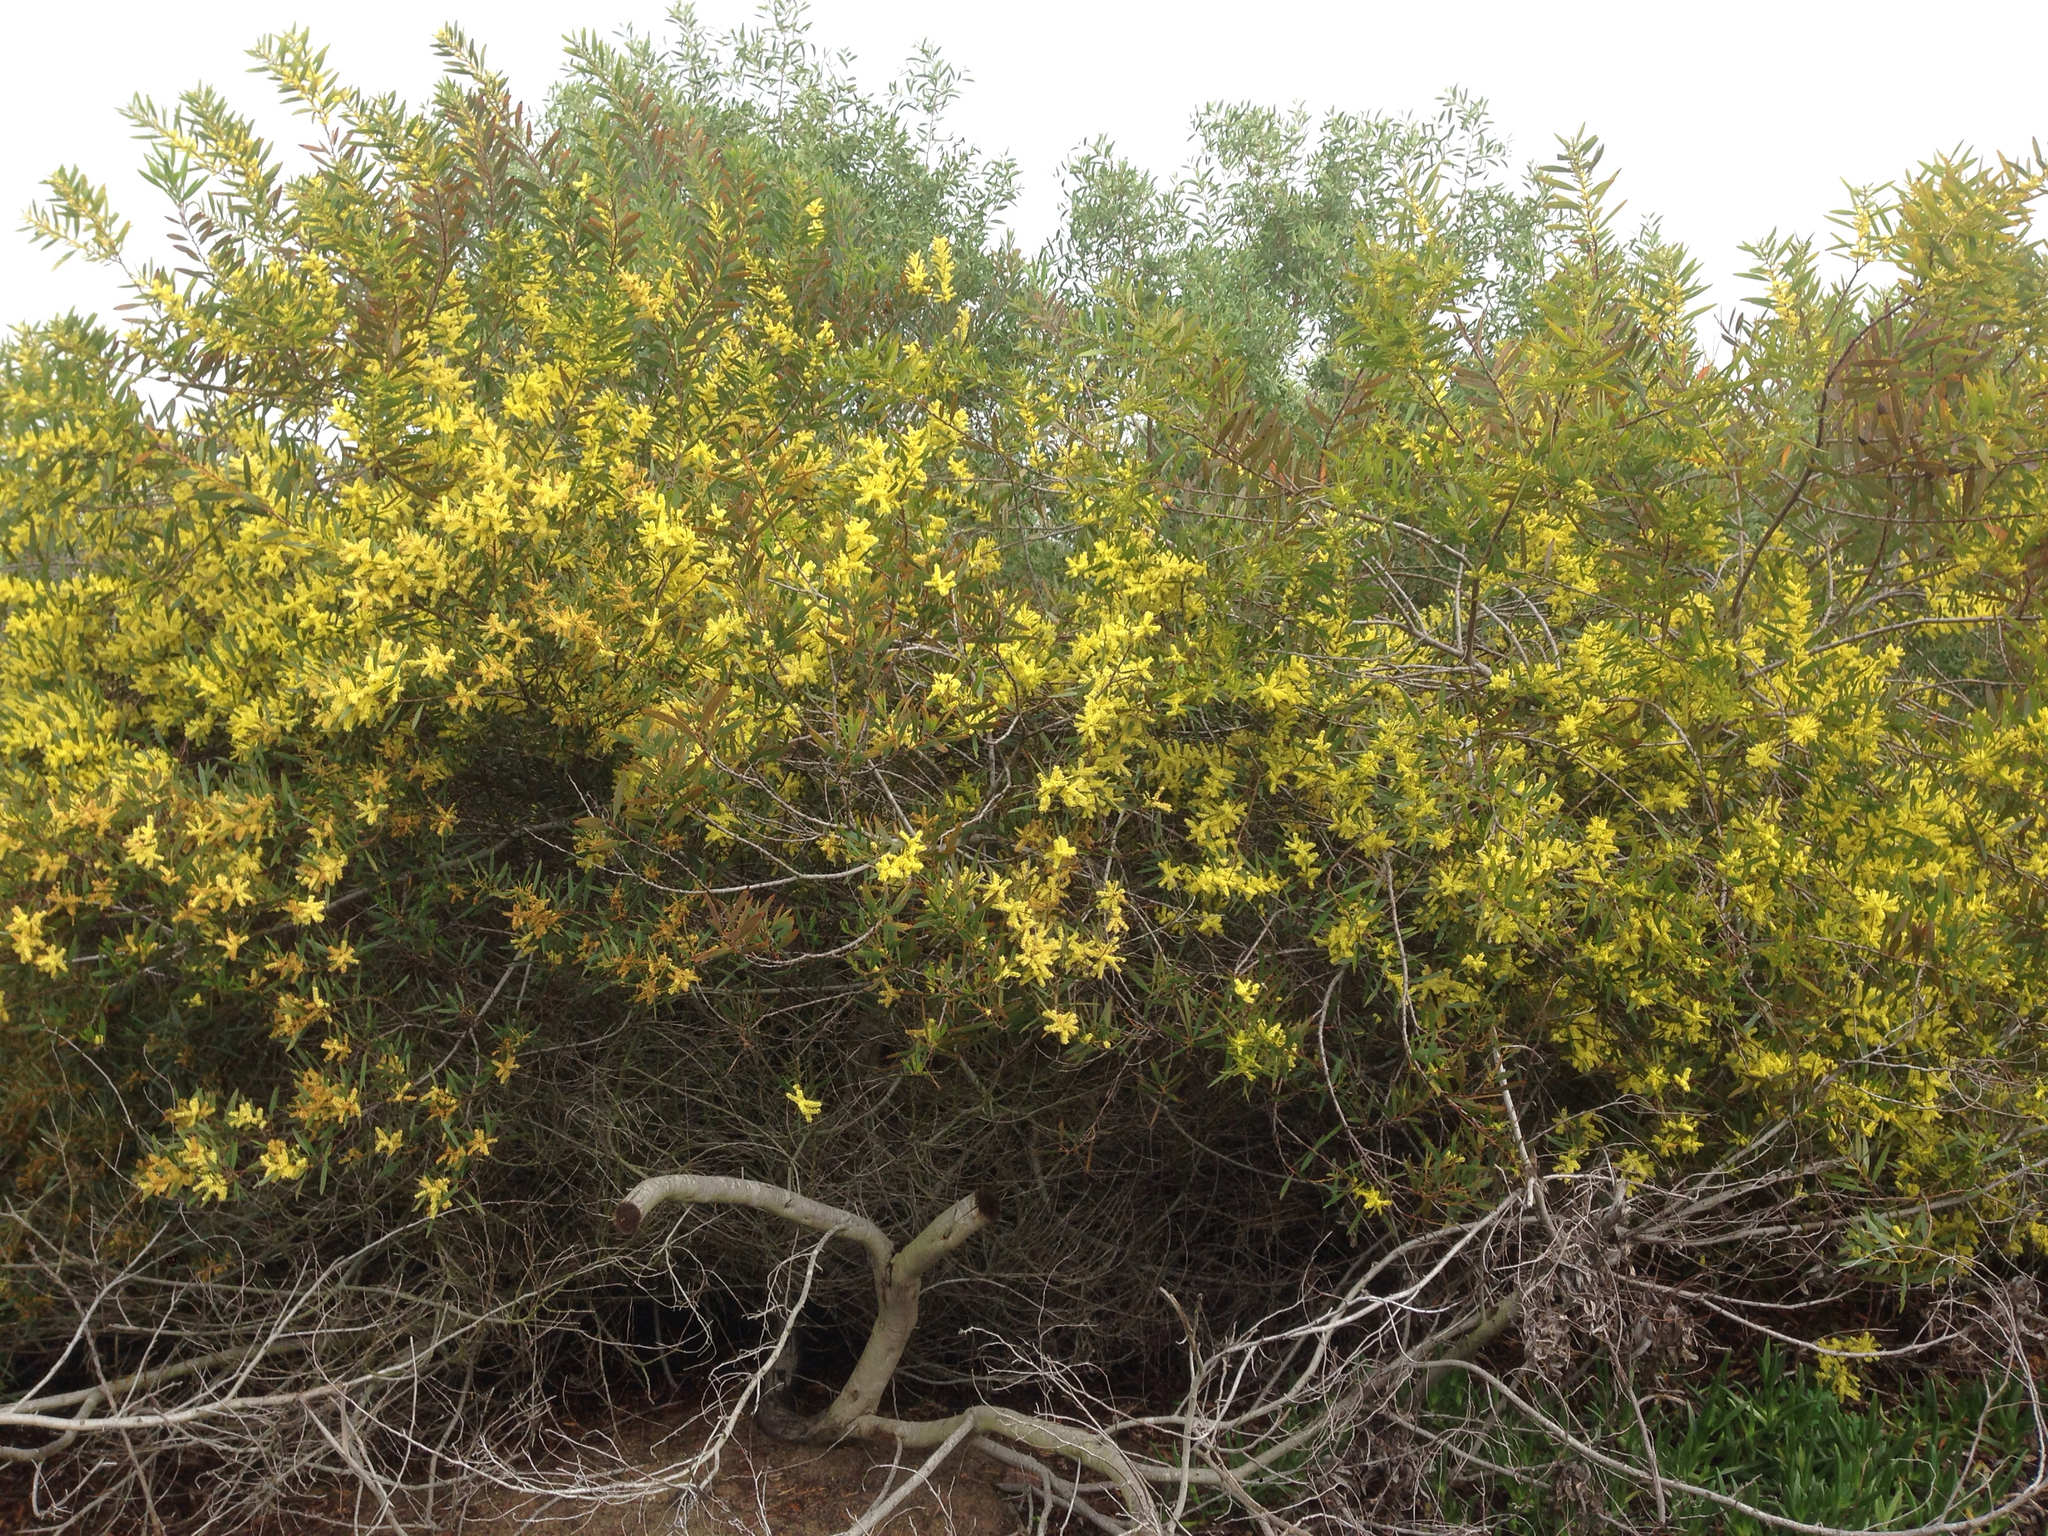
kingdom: Plantae
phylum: Tracheophyta
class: Magnoliopsida
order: Fabales
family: Fabaceae
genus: Acacia
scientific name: Acacia longifolia
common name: Sydney golden wattle
